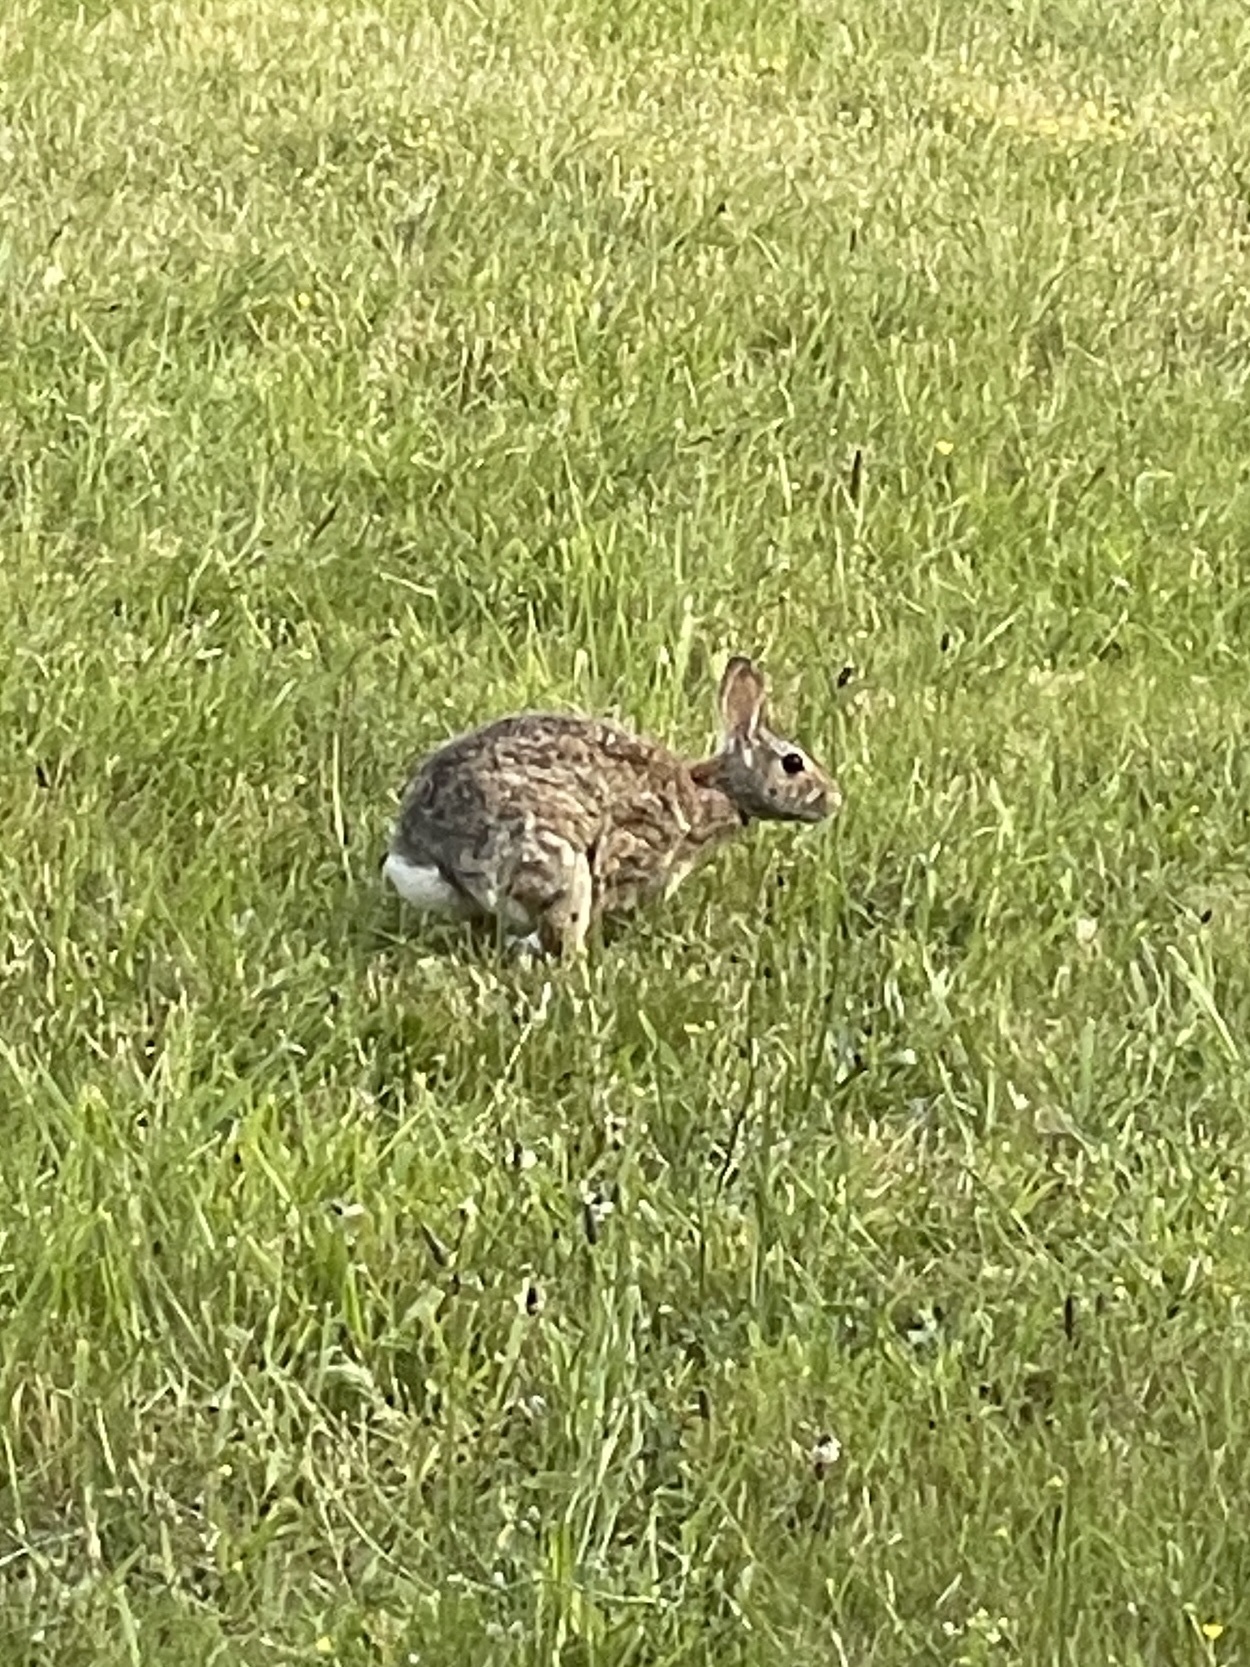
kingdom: Animalia
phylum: Chordata
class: Mammalia
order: Lagomorpha
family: Leporidae
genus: Sylvilagus
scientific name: Sylvilagus floridanus
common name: Eastern cottontail
